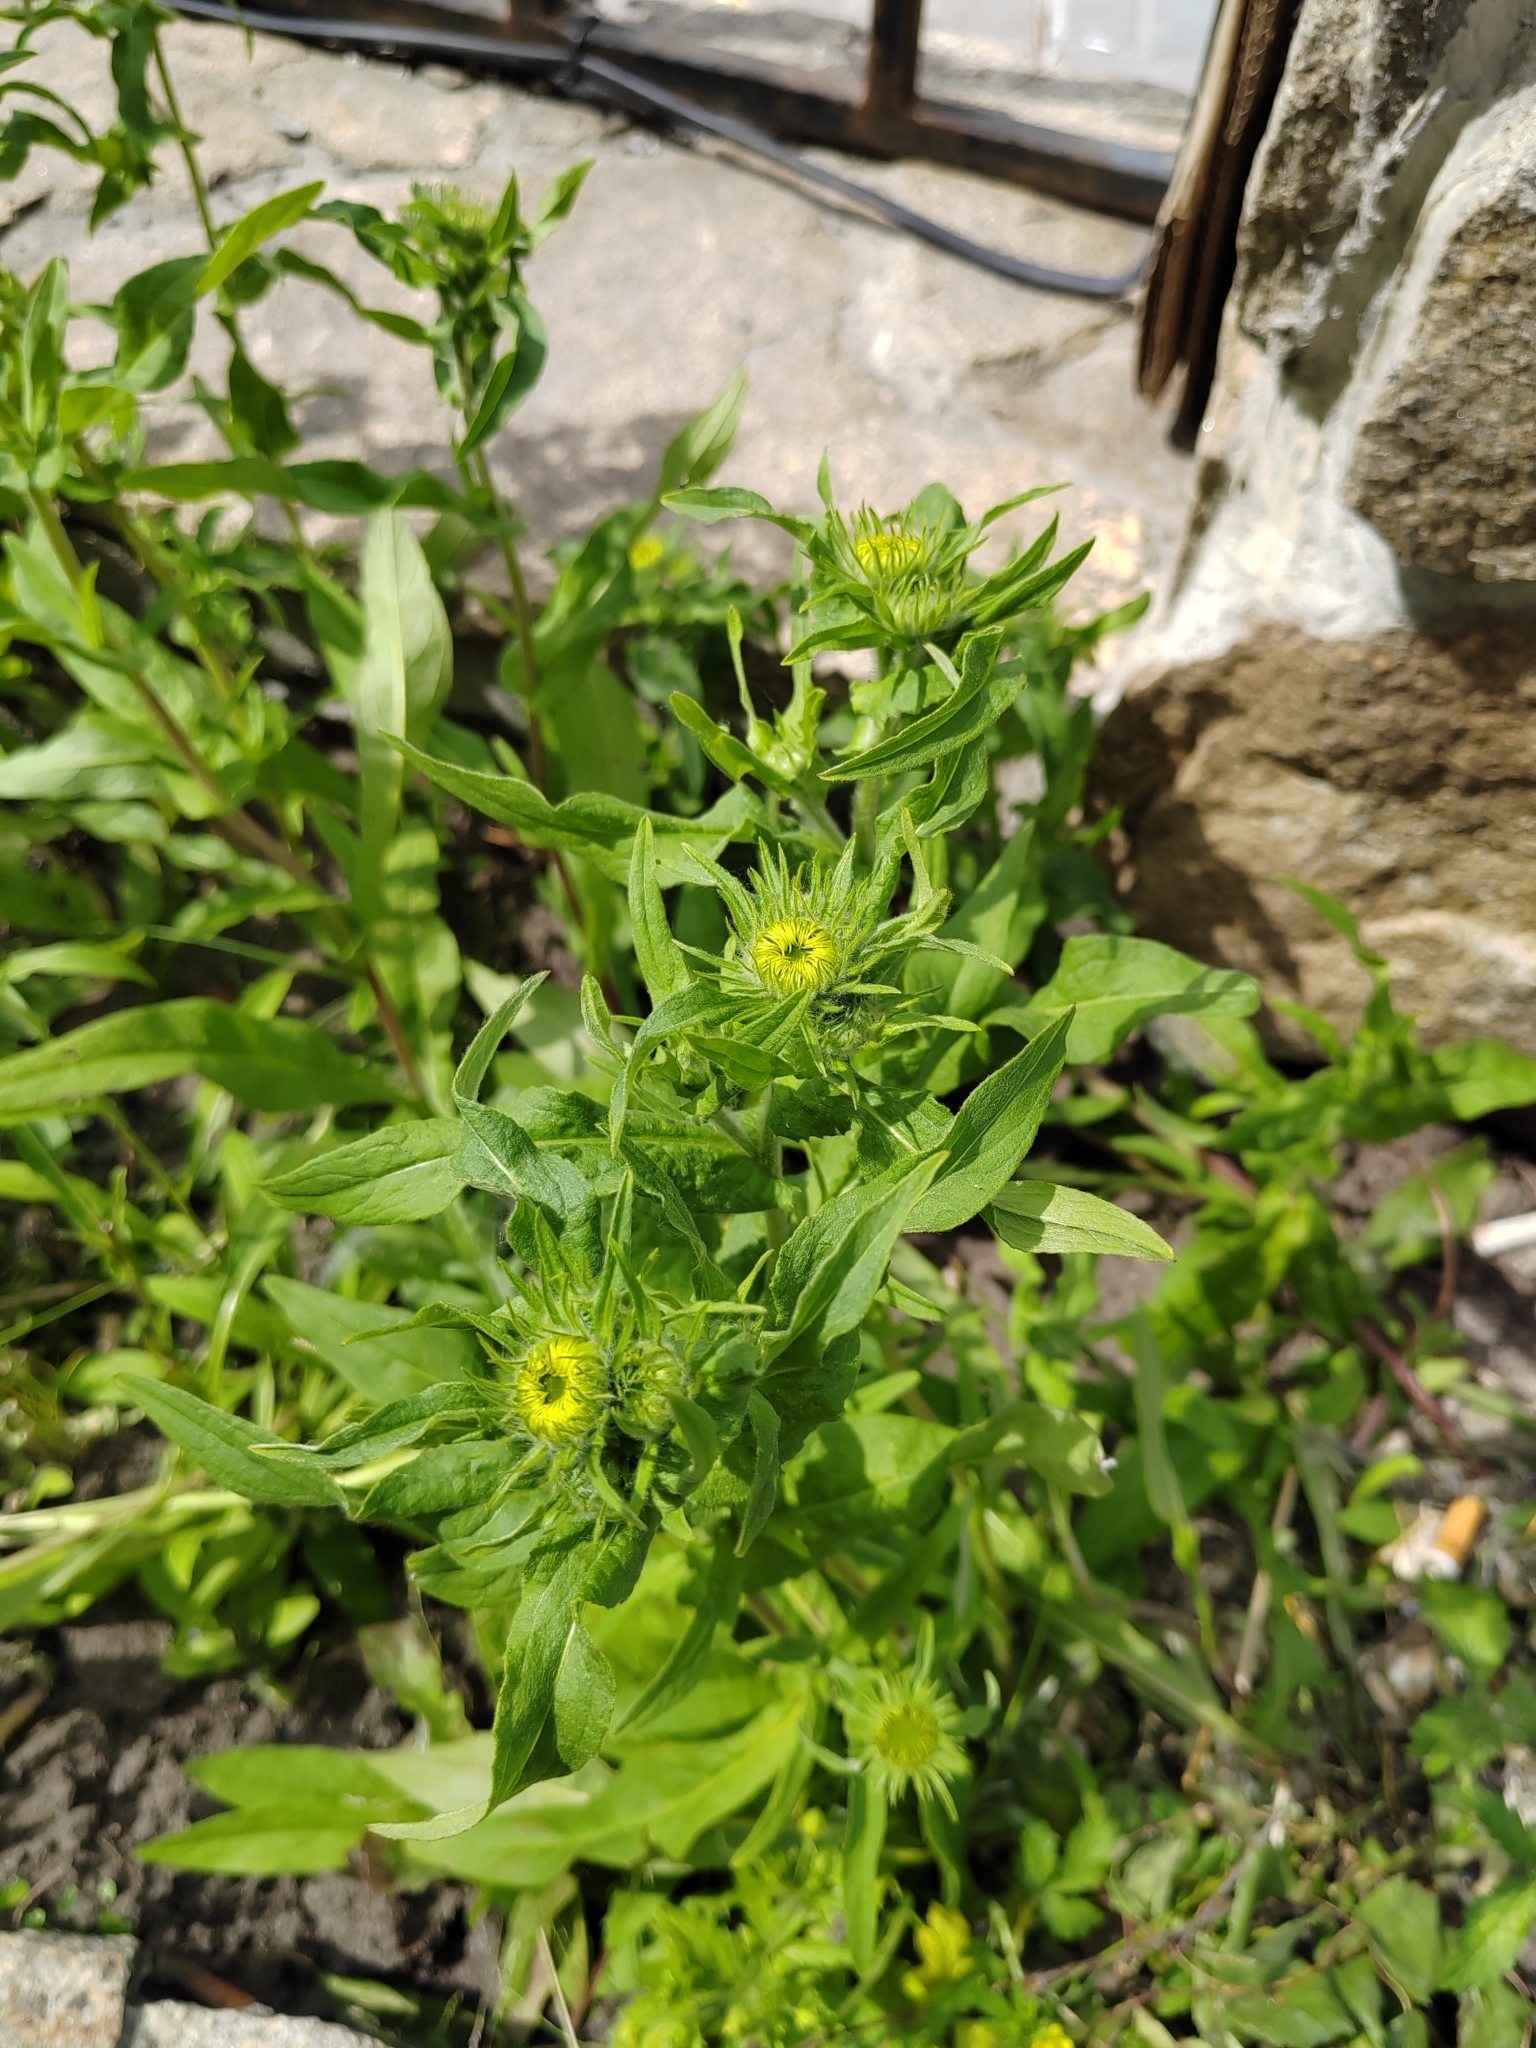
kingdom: Plantae
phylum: Tracheophyta
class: Magnoliopsida
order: Asterales
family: Asteraceae
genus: Pentanema
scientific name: Pentanema britannicum
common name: British elecampane
